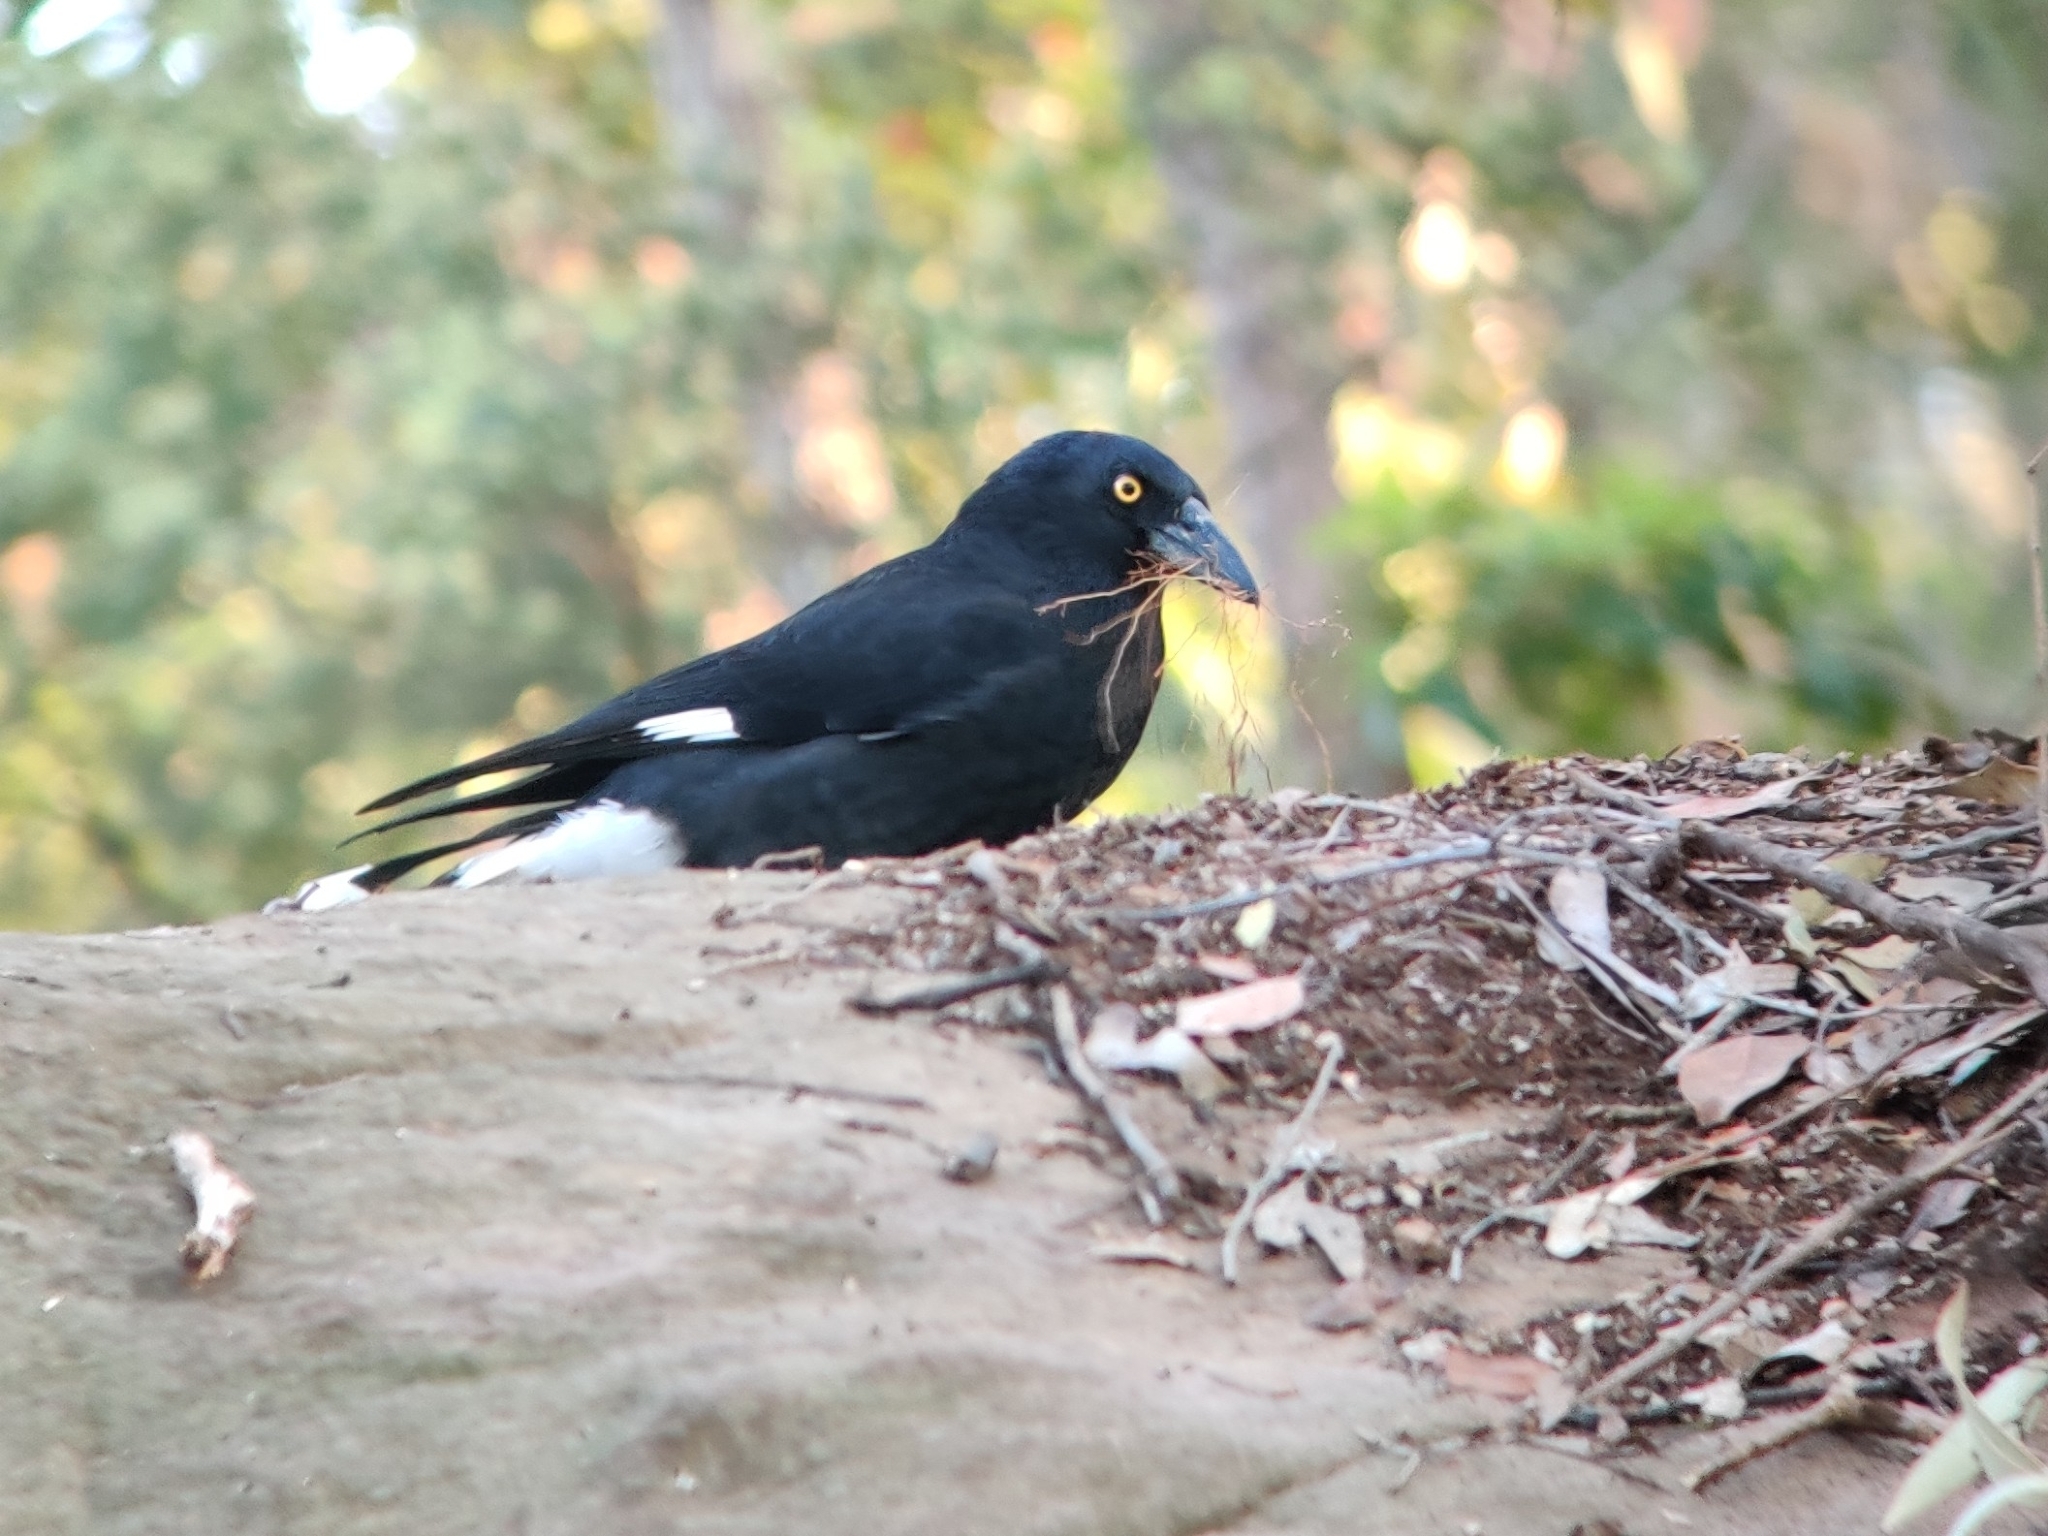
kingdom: Animalia
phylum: Chordata
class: Aves
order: Passeriformes
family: Cracticidae
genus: Strepera
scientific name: Strepera graculina
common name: Pied currawong
